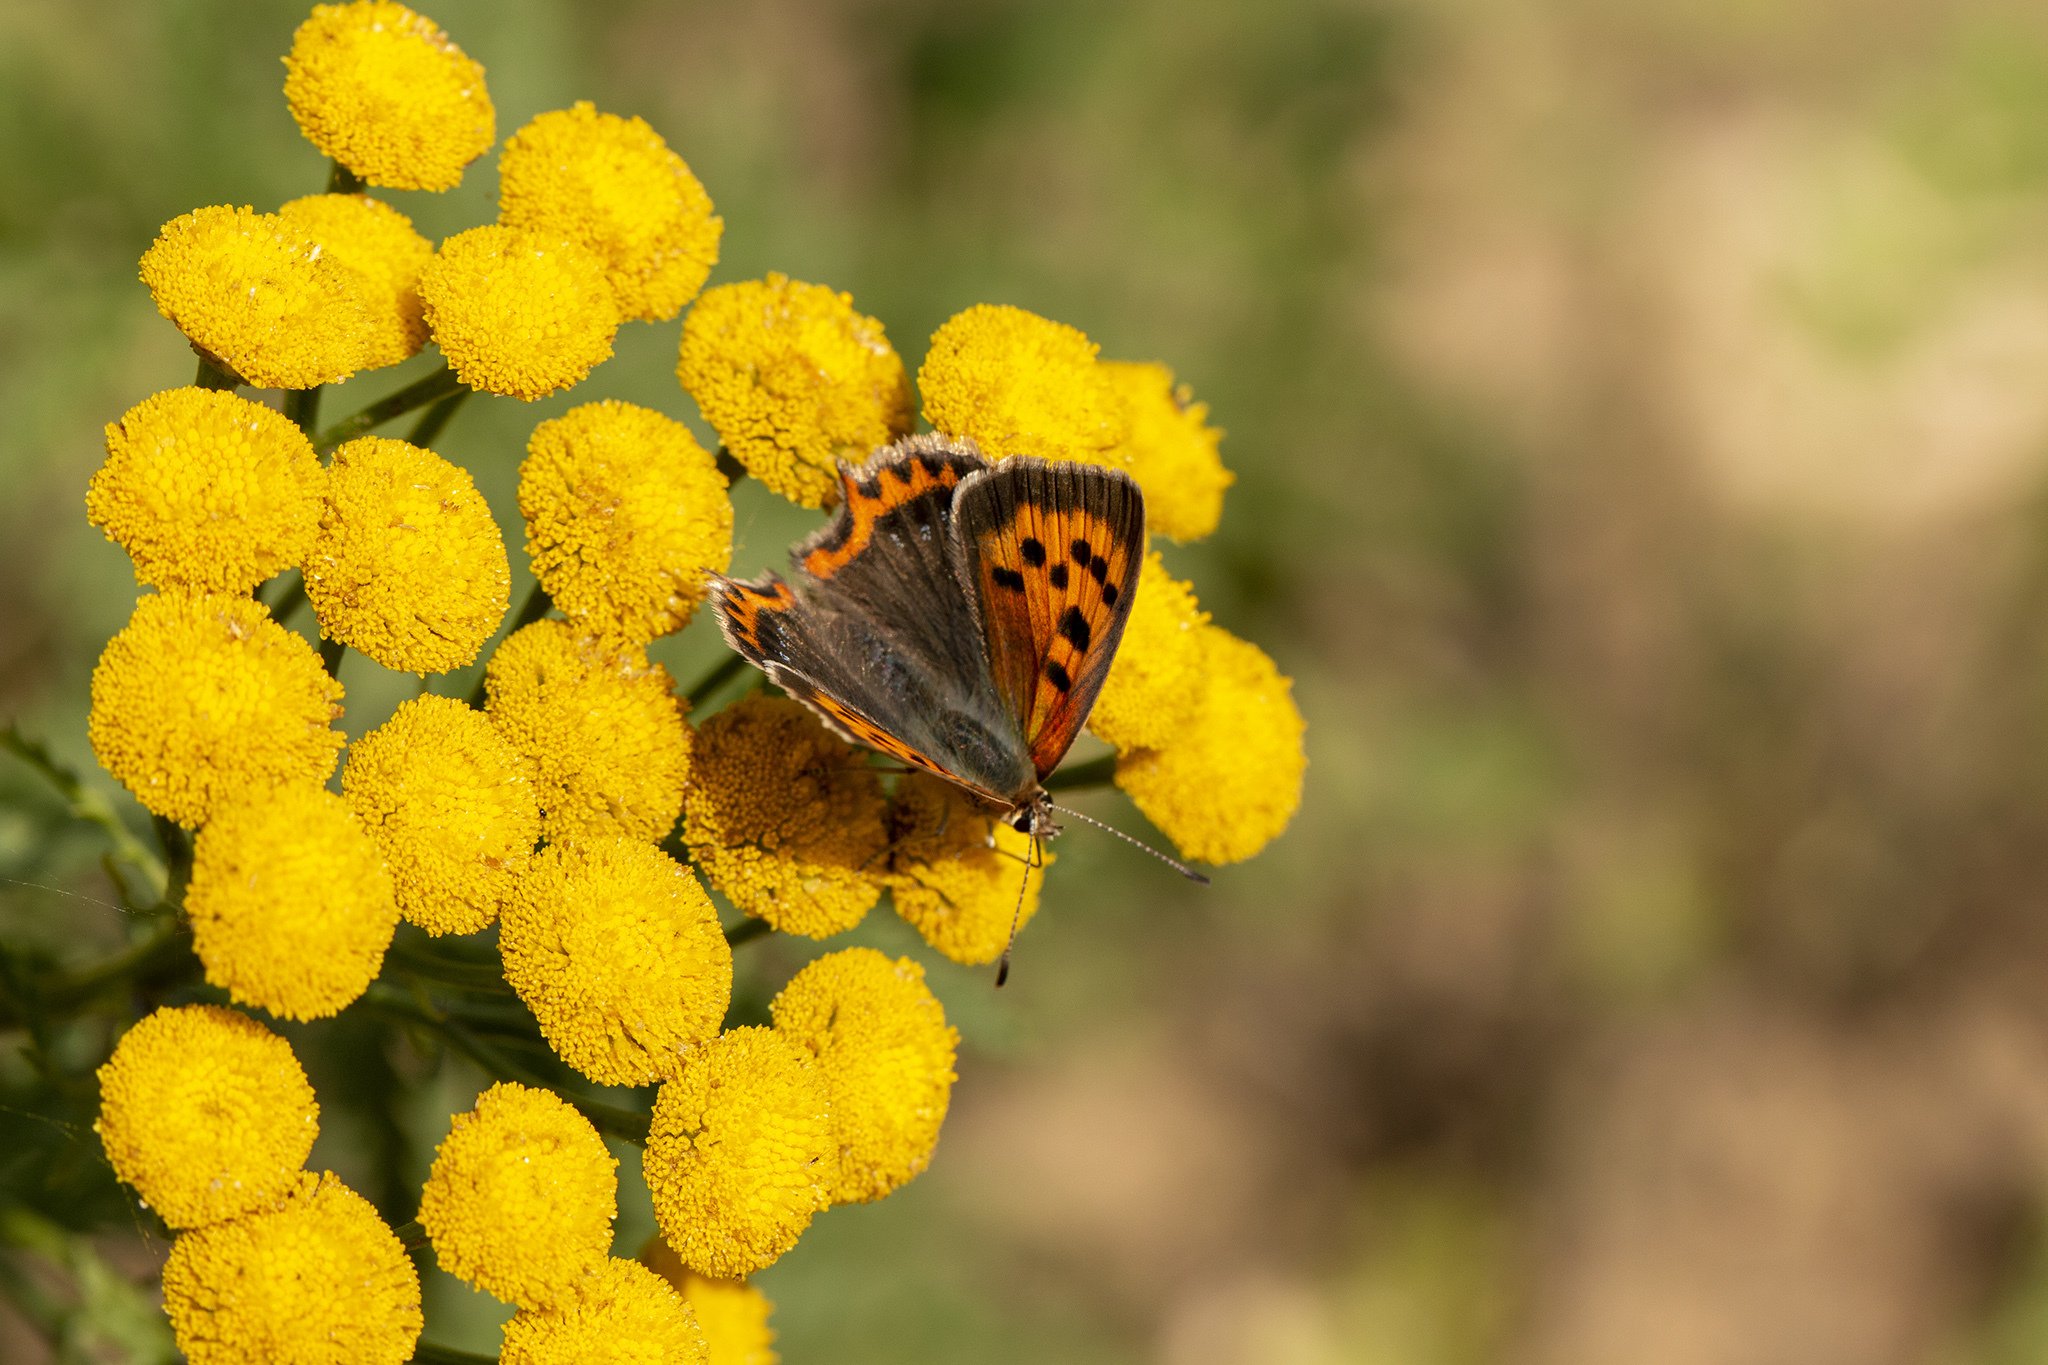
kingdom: Animalia
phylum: Arthropoda
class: Insecta
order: Lepidoptera
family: Lycaenidae
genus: Lycaena
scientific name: Lycaena phlaeas
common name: Small copper
